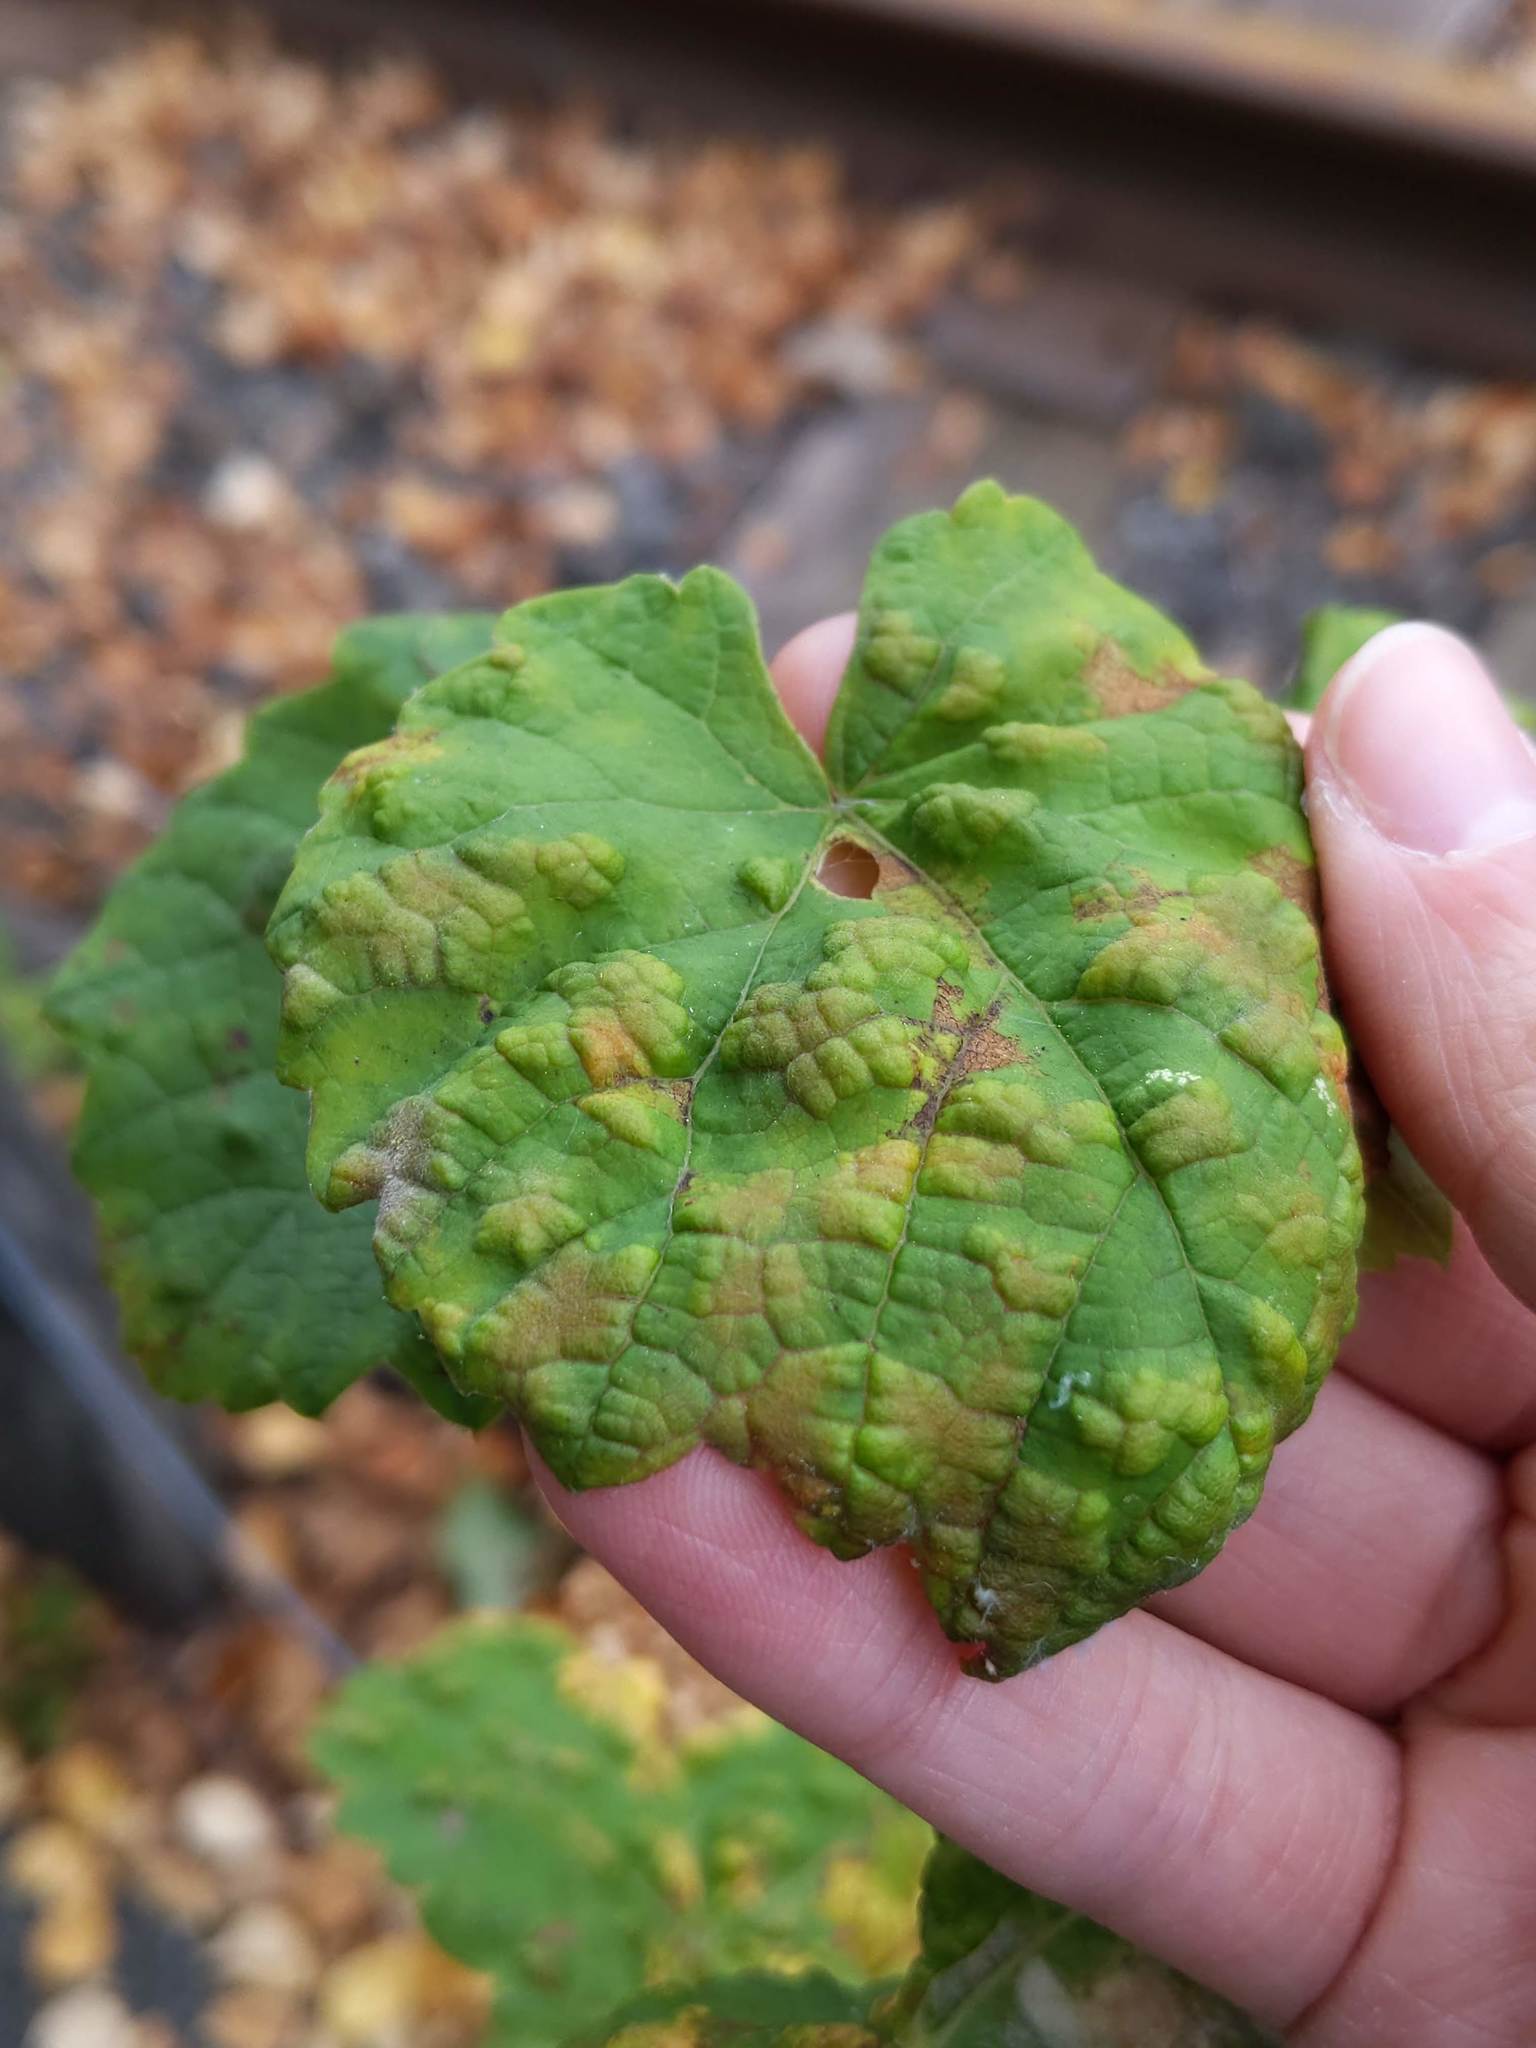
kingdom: Animalia
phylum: Arthropoda
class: Arachnida
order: Trombidiformes
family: Eriophyidae
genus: Colomerus
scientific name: Colomerus vitis
